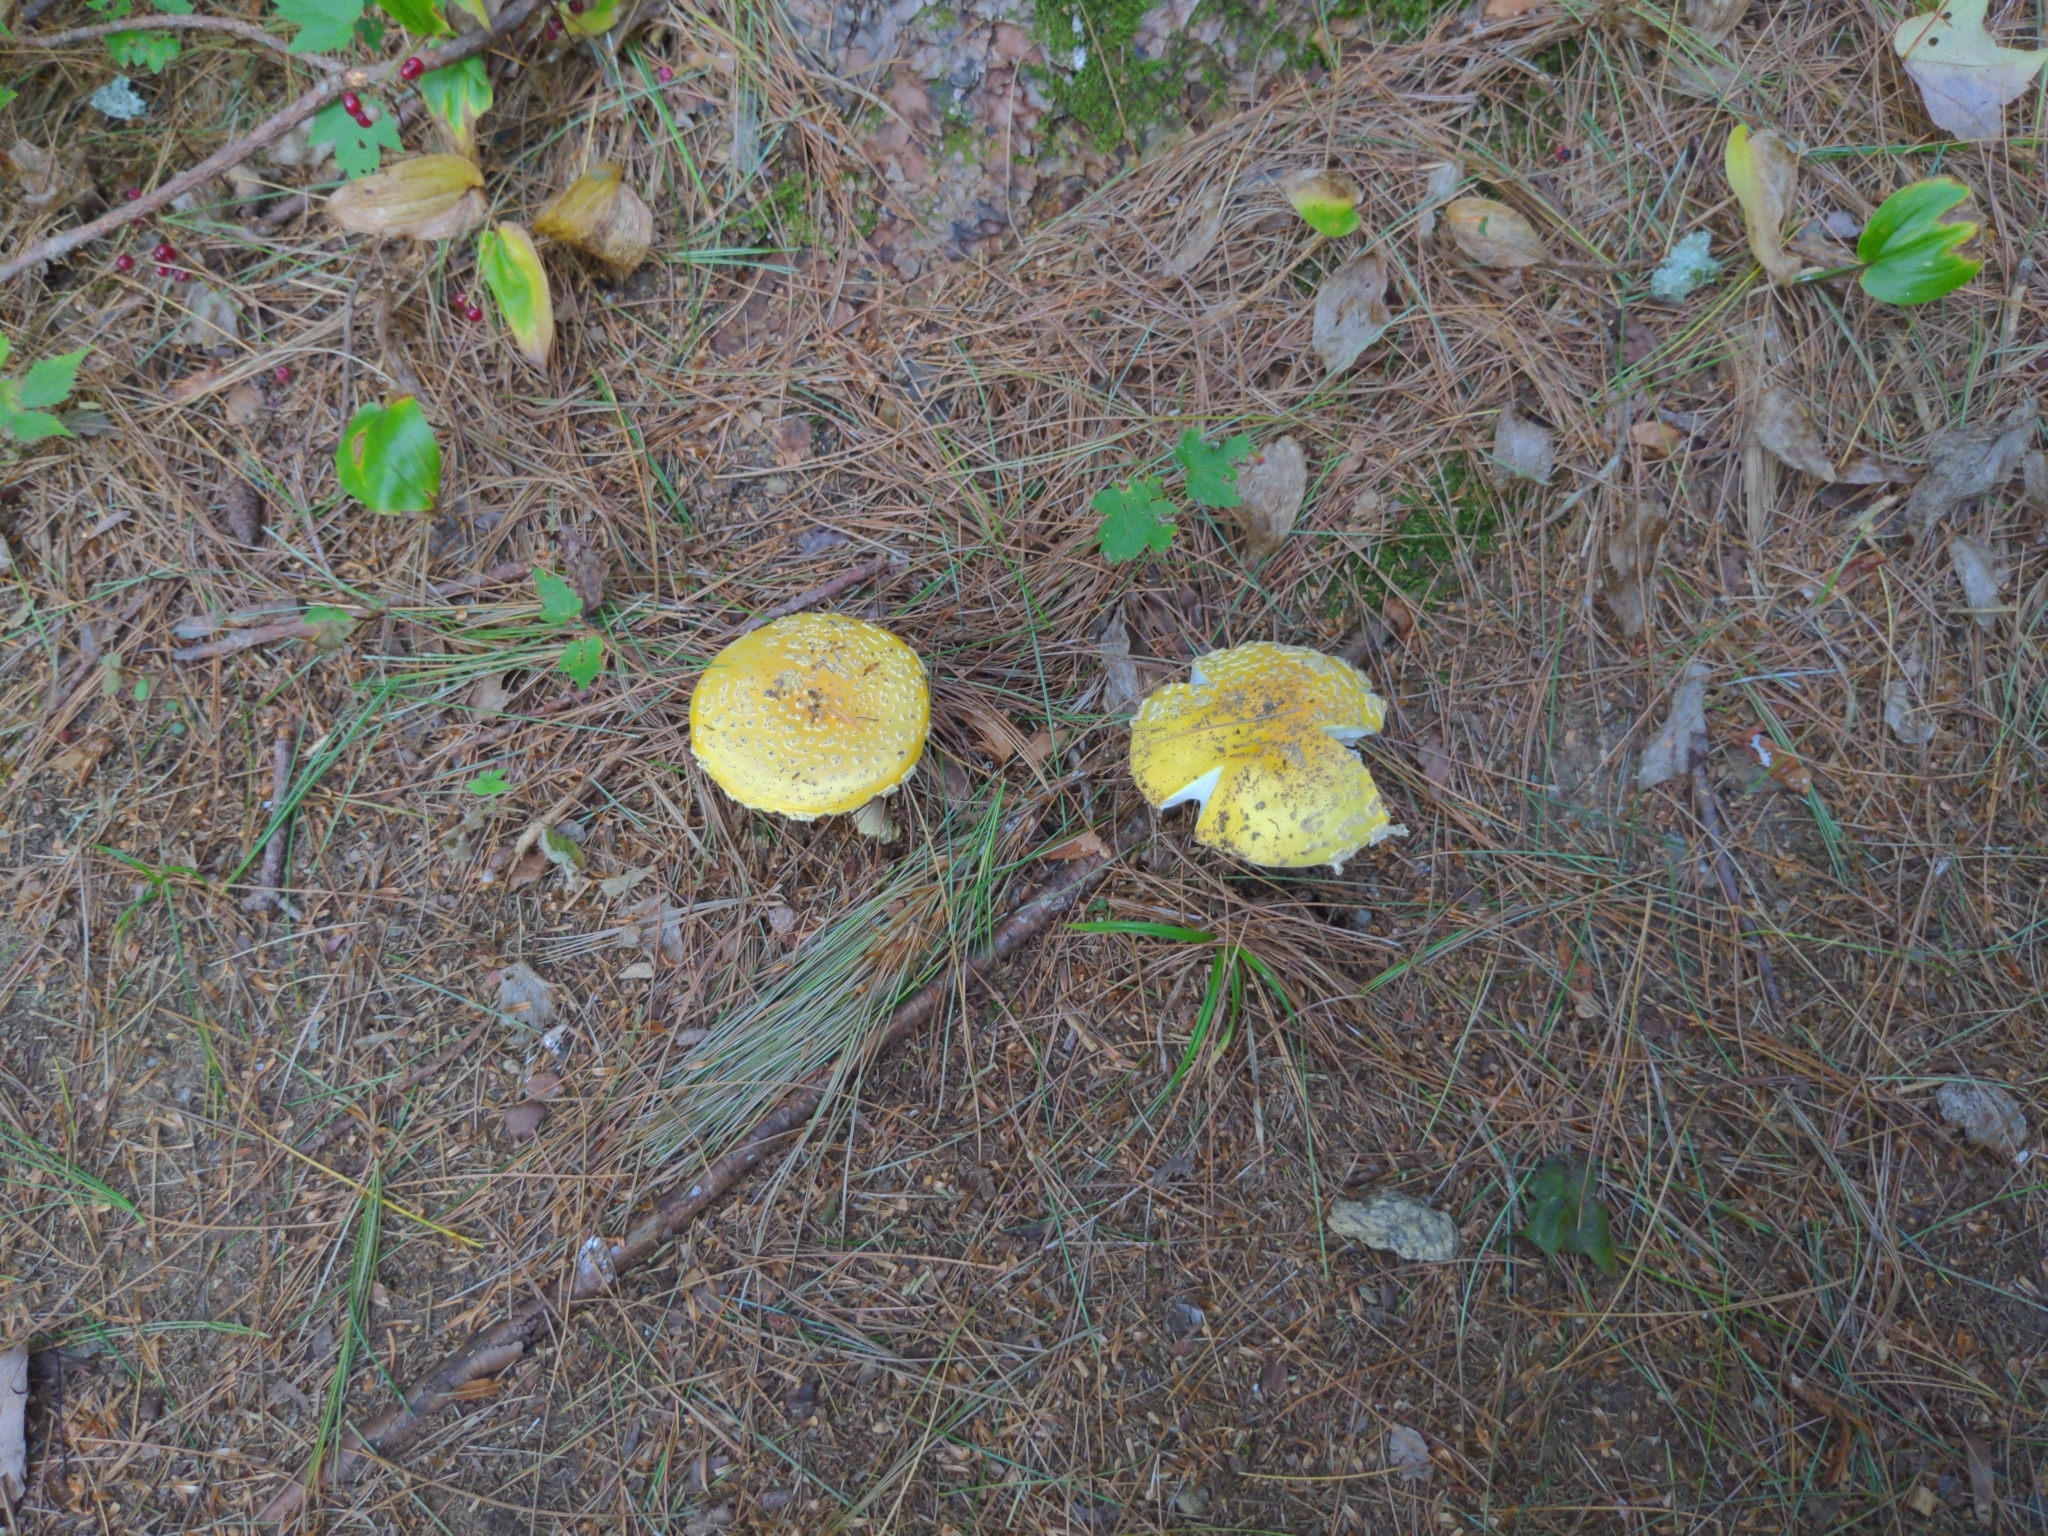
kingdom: Fungi
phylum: Basidiomycota
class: Agaricomycetes
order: Agaricales
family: Amanitaceae
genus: Amanita
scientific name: Amanita muscaria
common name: Fly agaric
